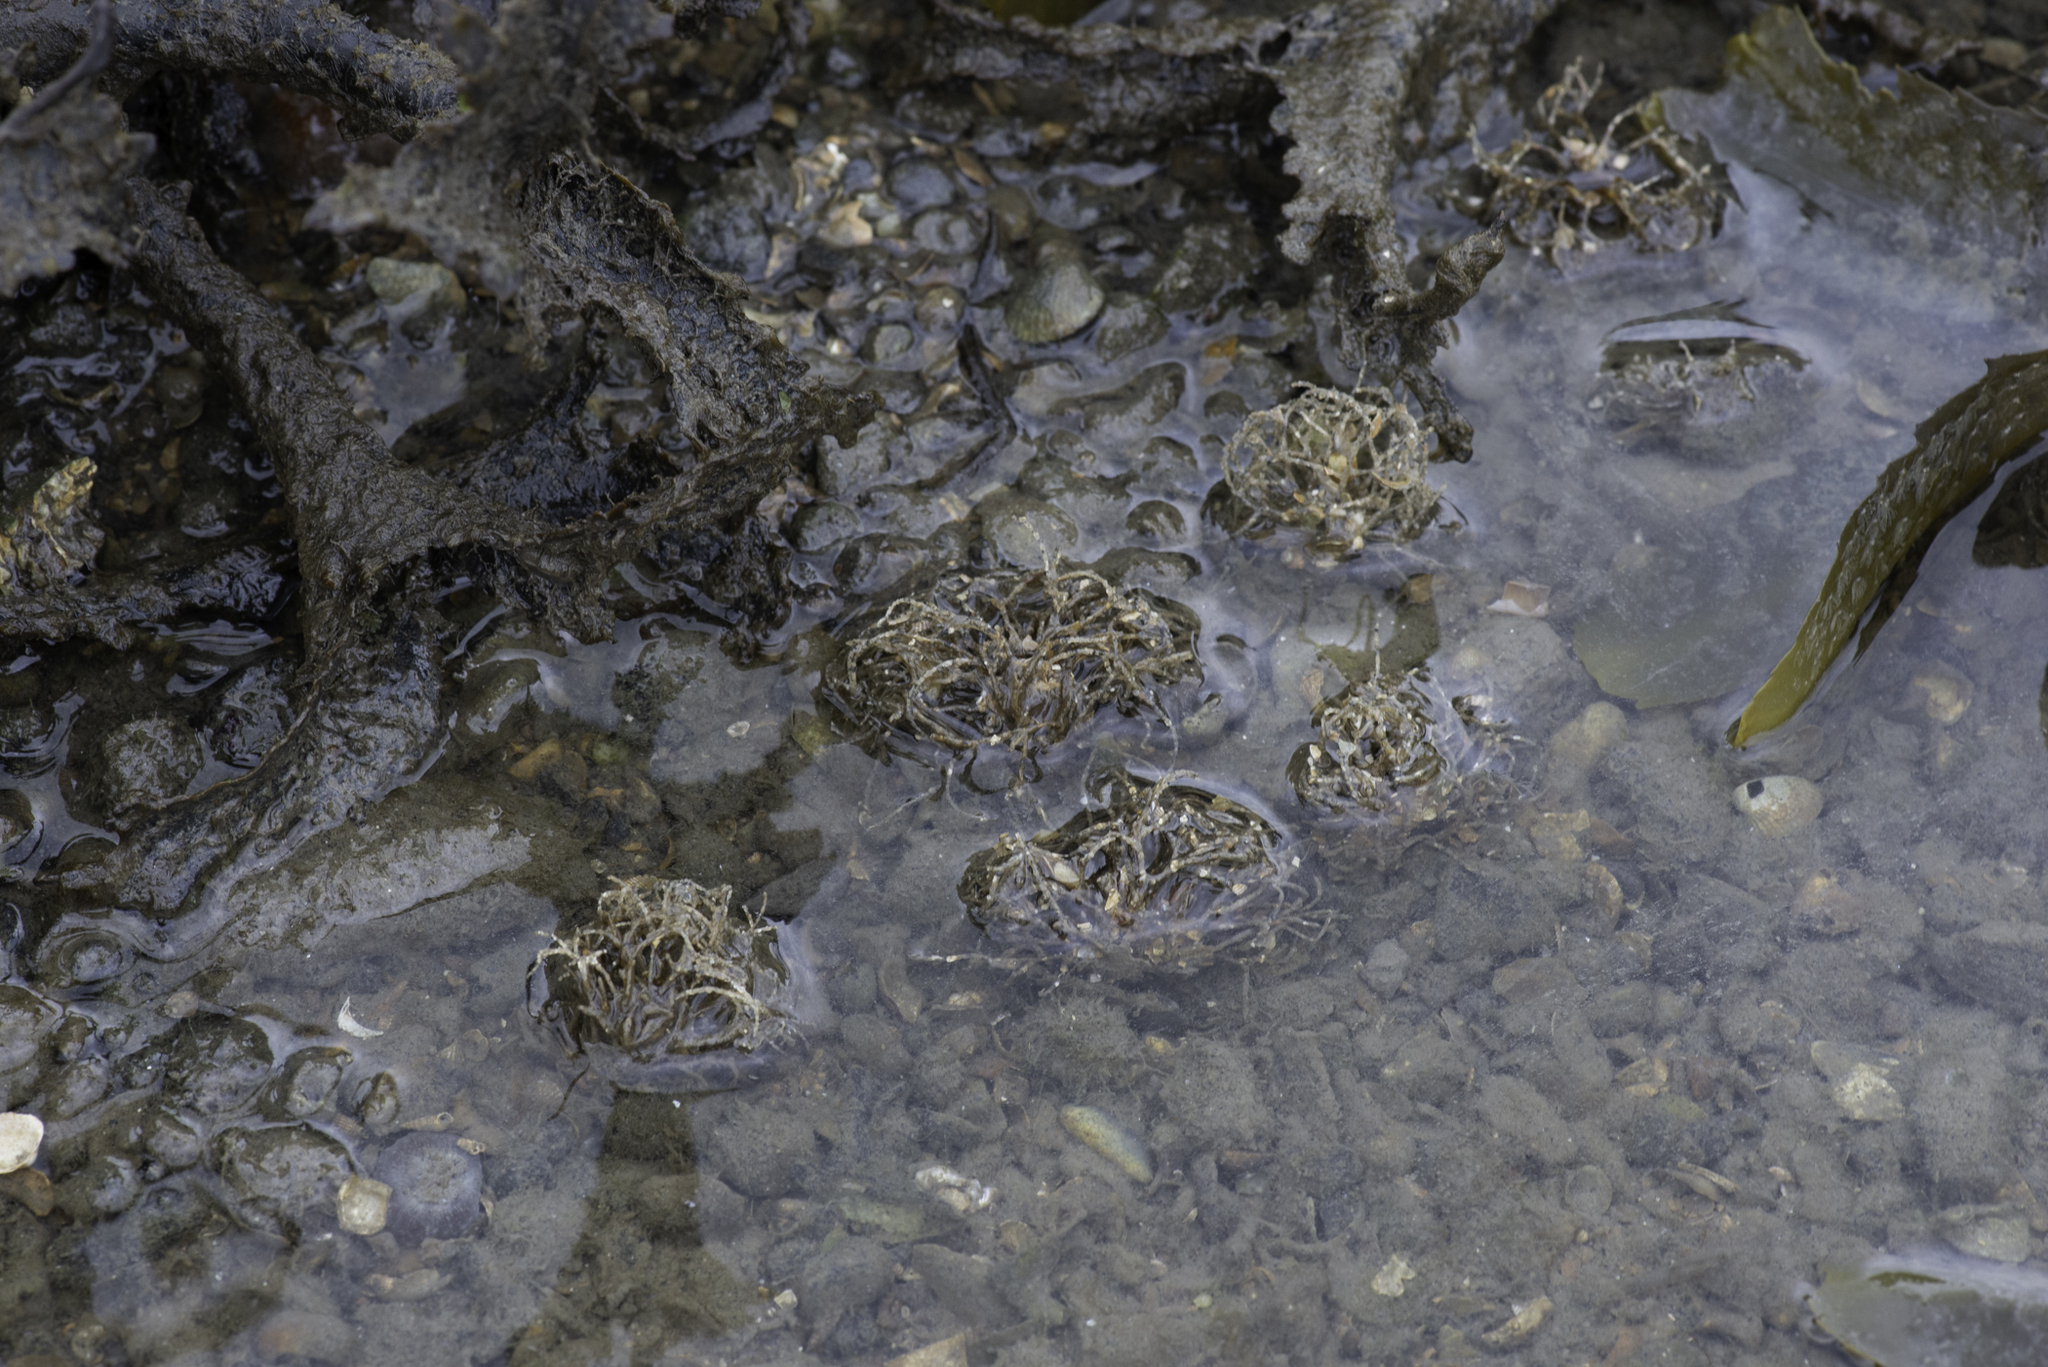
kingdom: Animalia
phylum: Annelida
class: Polychaeta
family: Terebellidae
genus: Lanice
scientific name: Lanice conchilega
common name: Sand mason
